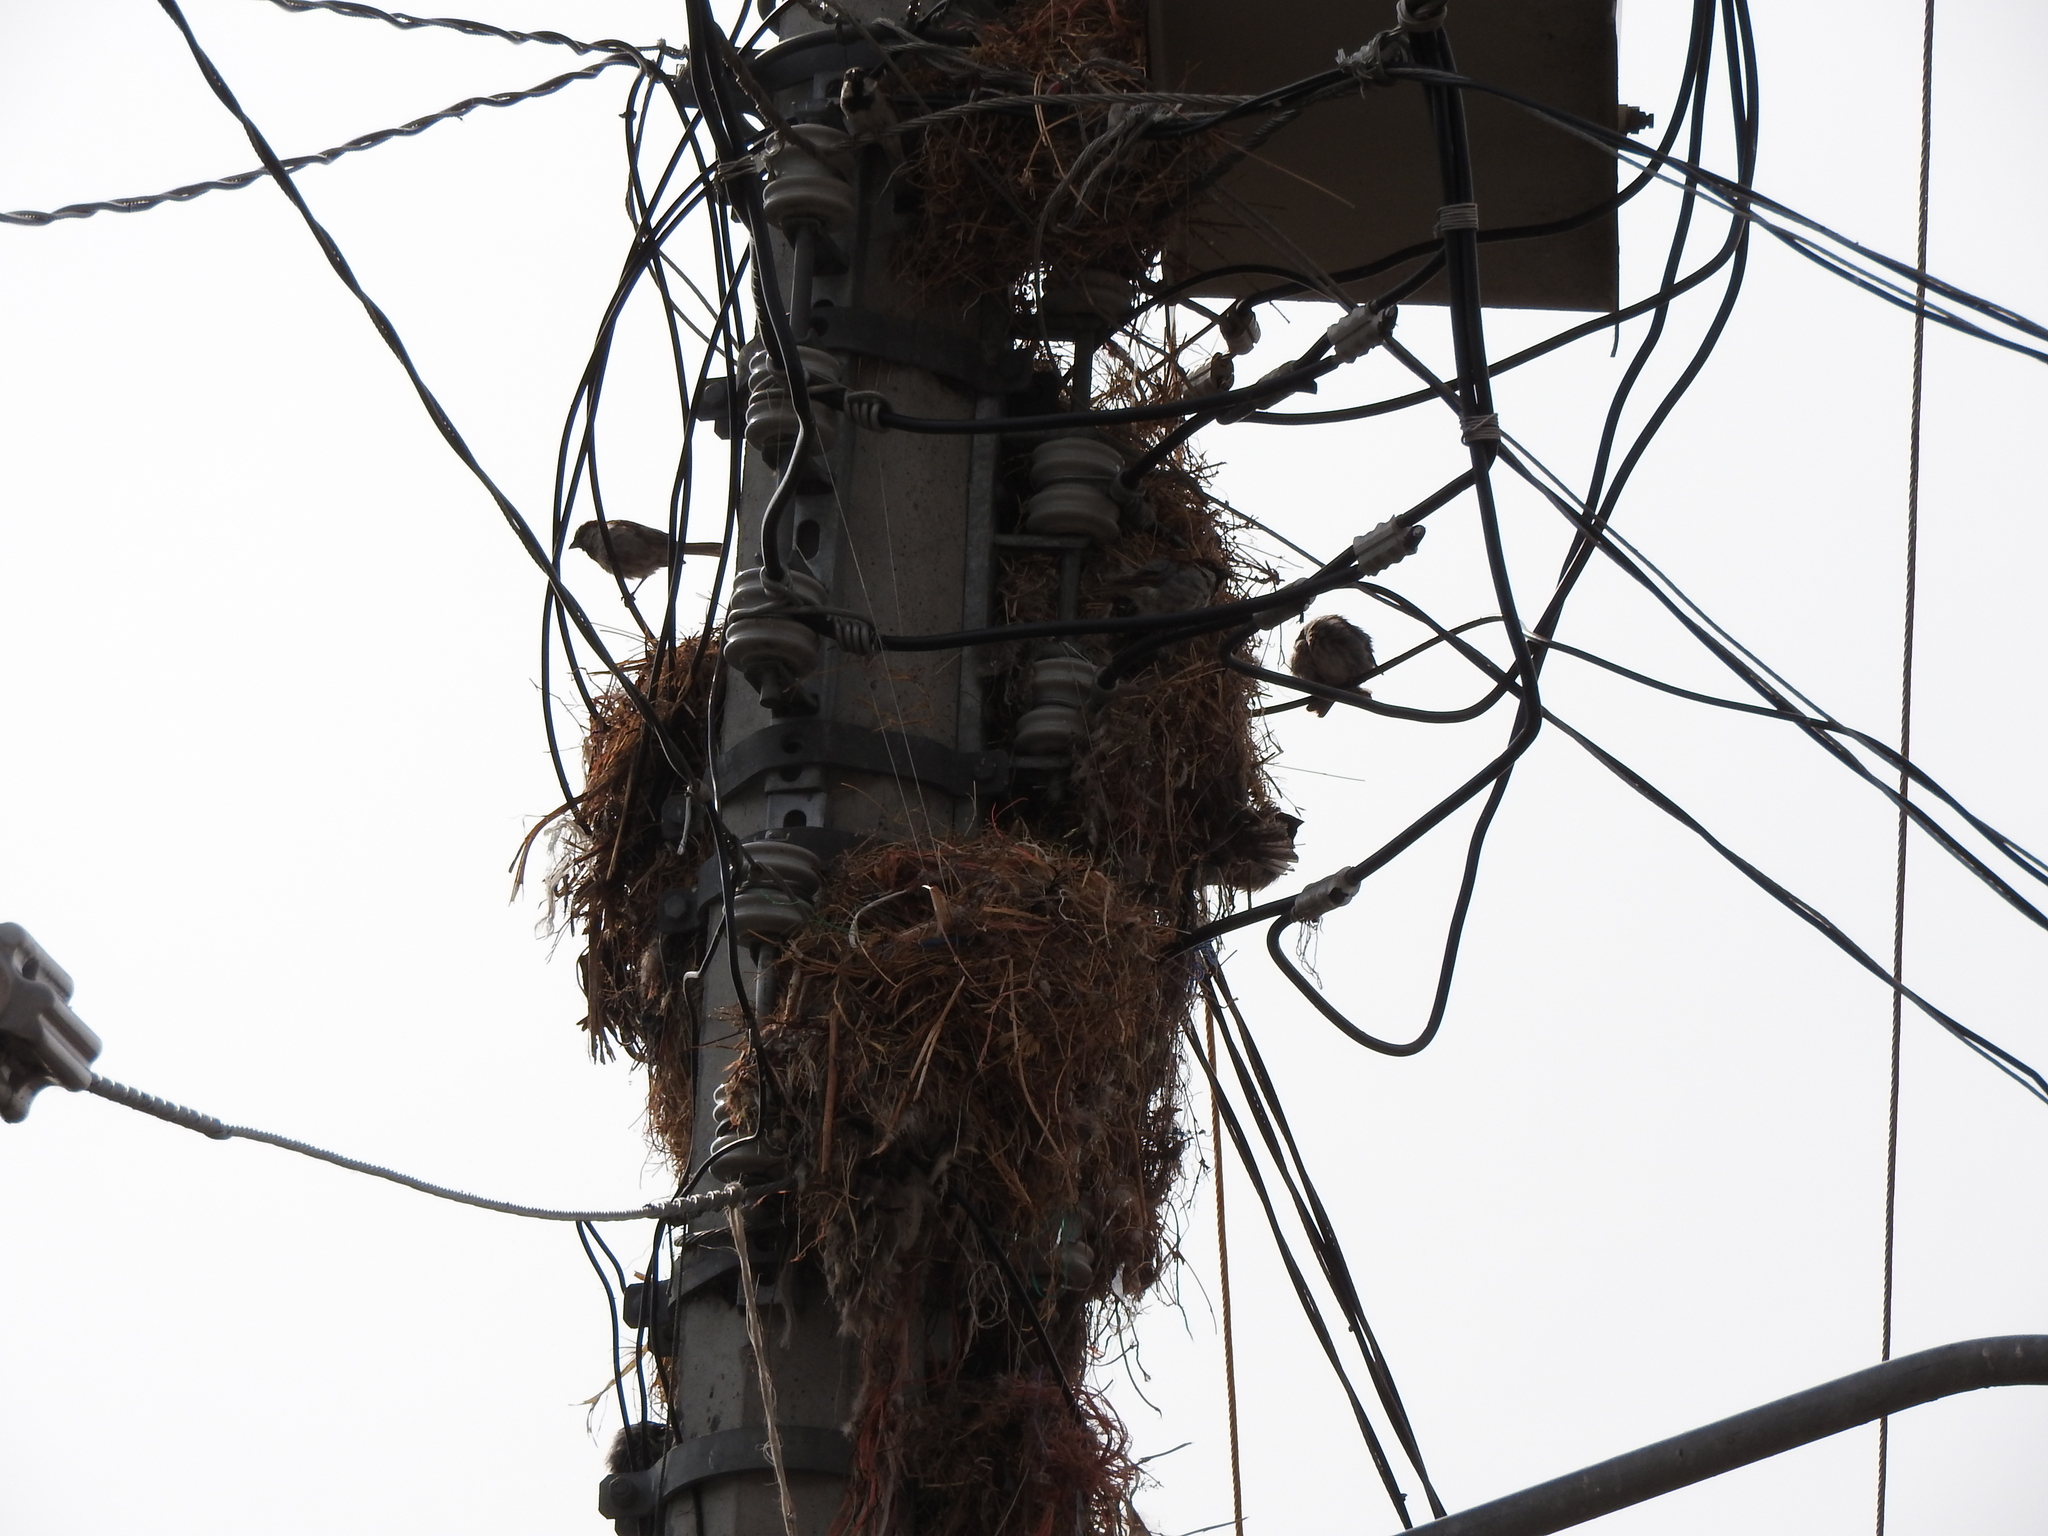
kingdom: Animalia
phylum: Chordata
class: Aves
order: Passeriformes
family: Passeridae
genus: Passer
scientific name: Passer domesticus
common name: House sparrow
